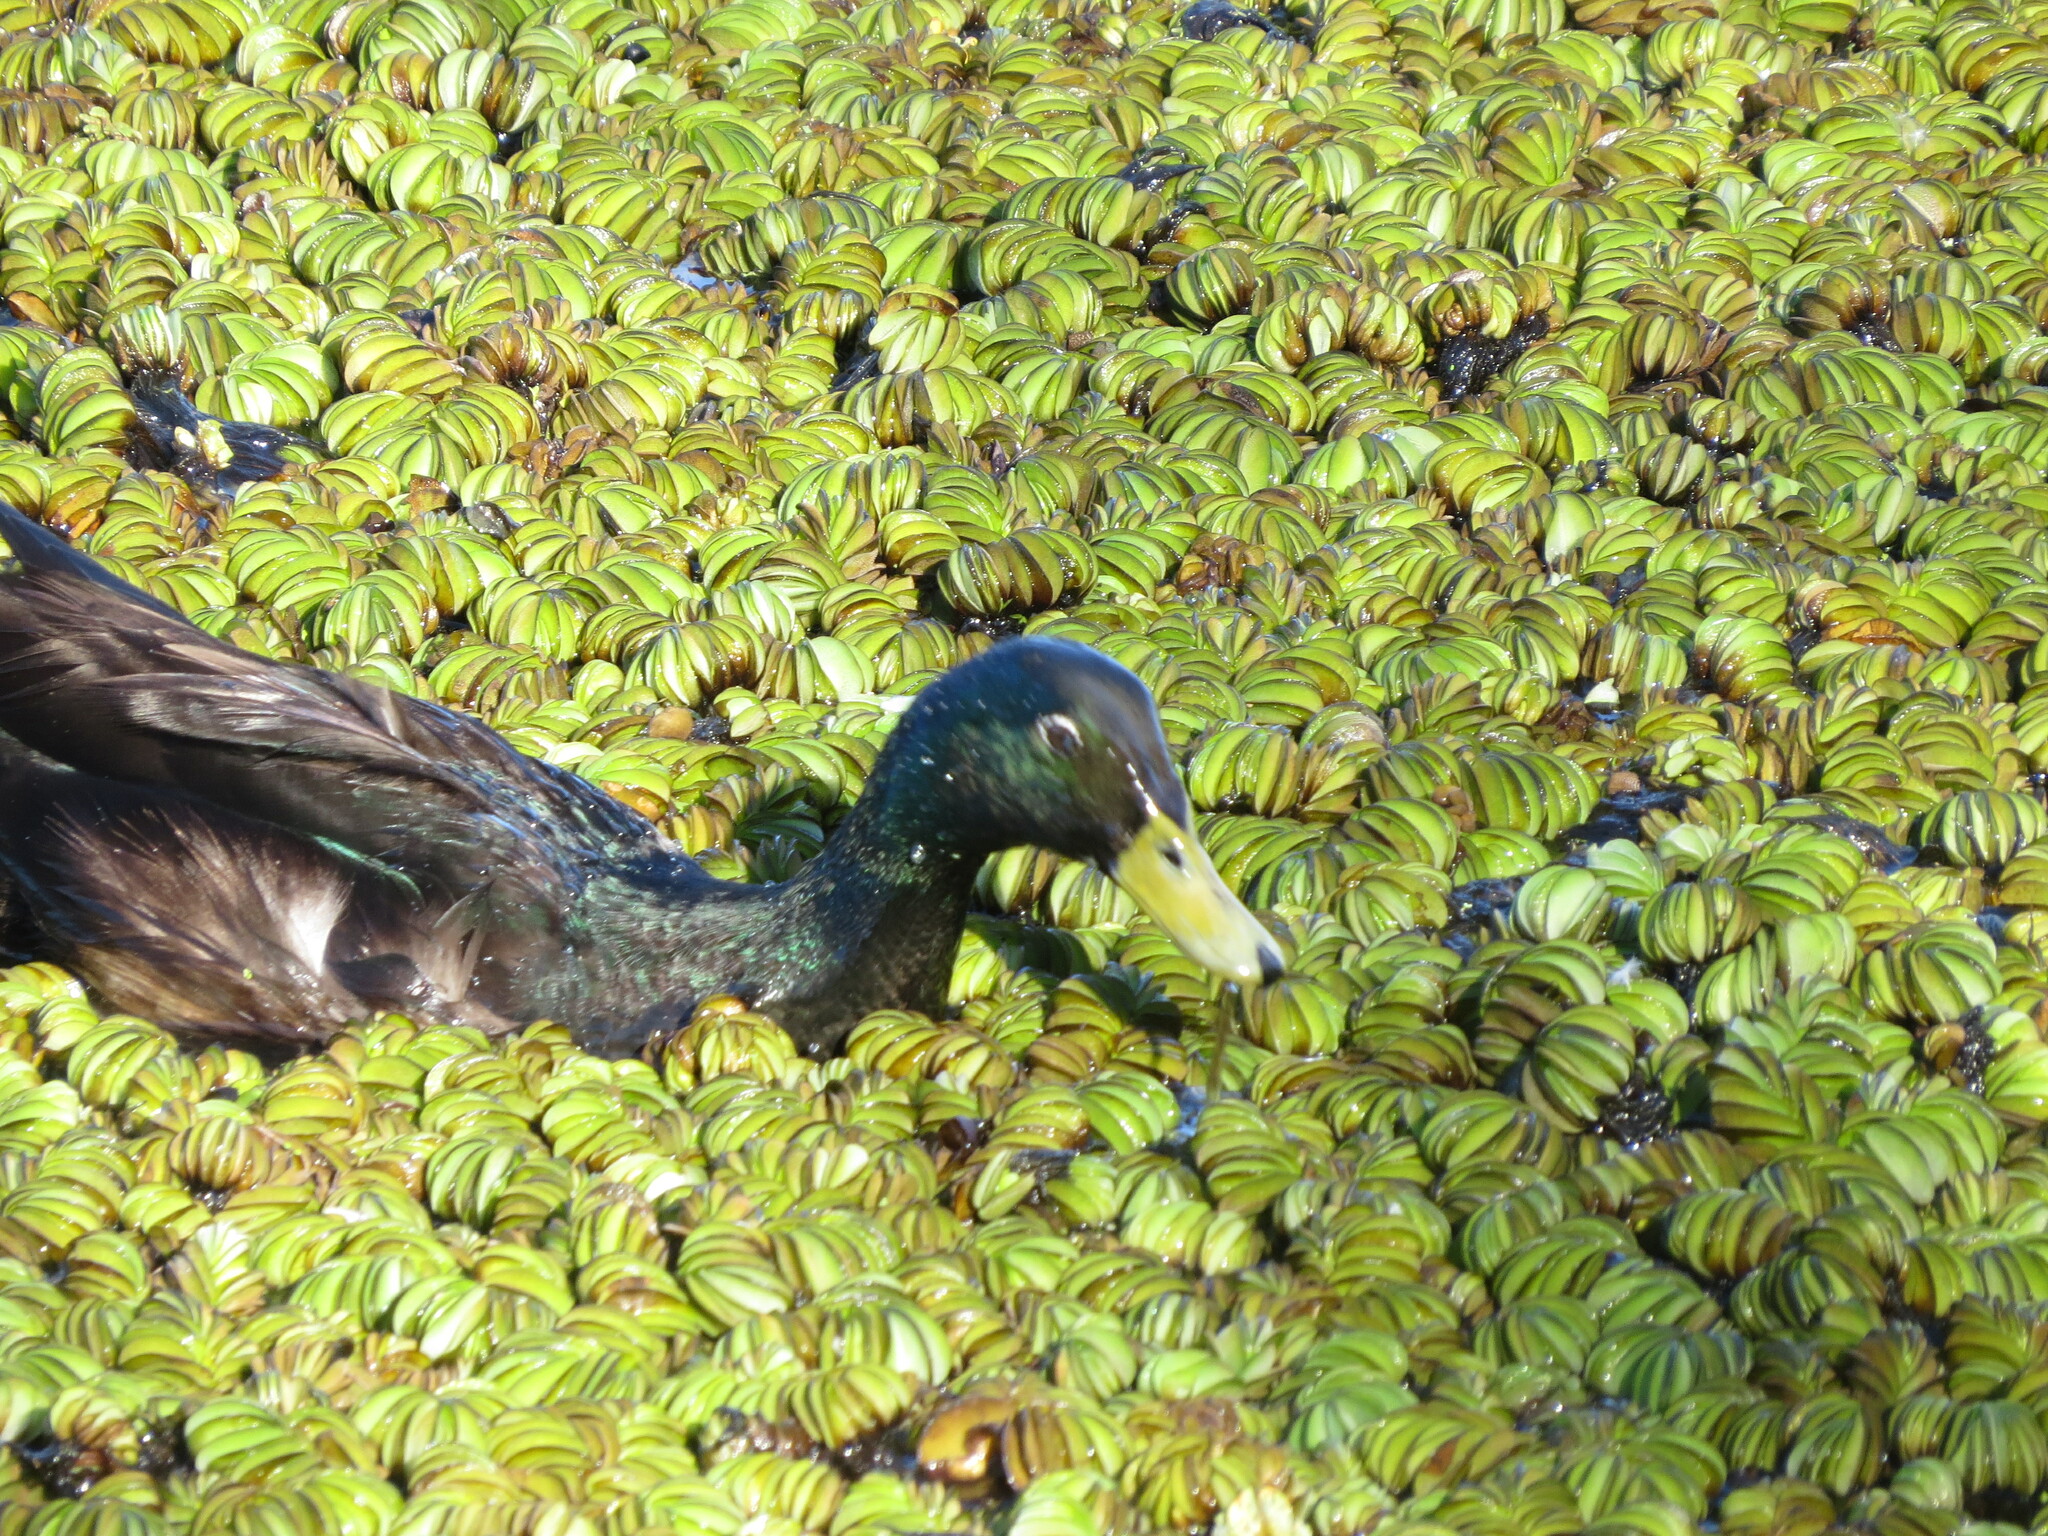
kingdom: Animalia
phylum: Chordata
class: Aves
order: Anseriformes
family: Anatidae
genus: Anas
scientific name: Anas platyrhynchos
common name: Mallard
